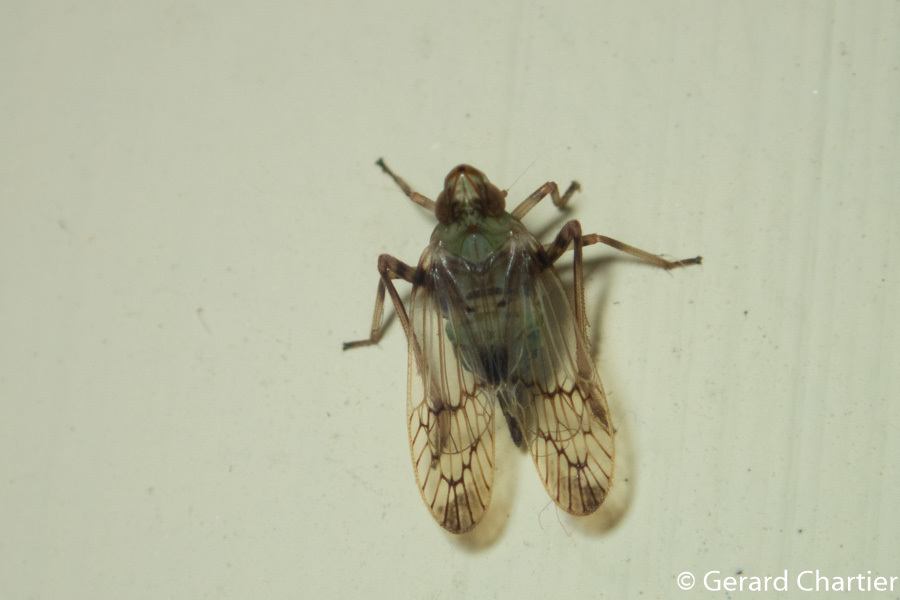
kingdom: Animalia
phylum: Arthropoda
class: Insecta
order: Hemiptera
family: Tropiduchidae
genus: Sogana
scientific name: Sogana chartieri
